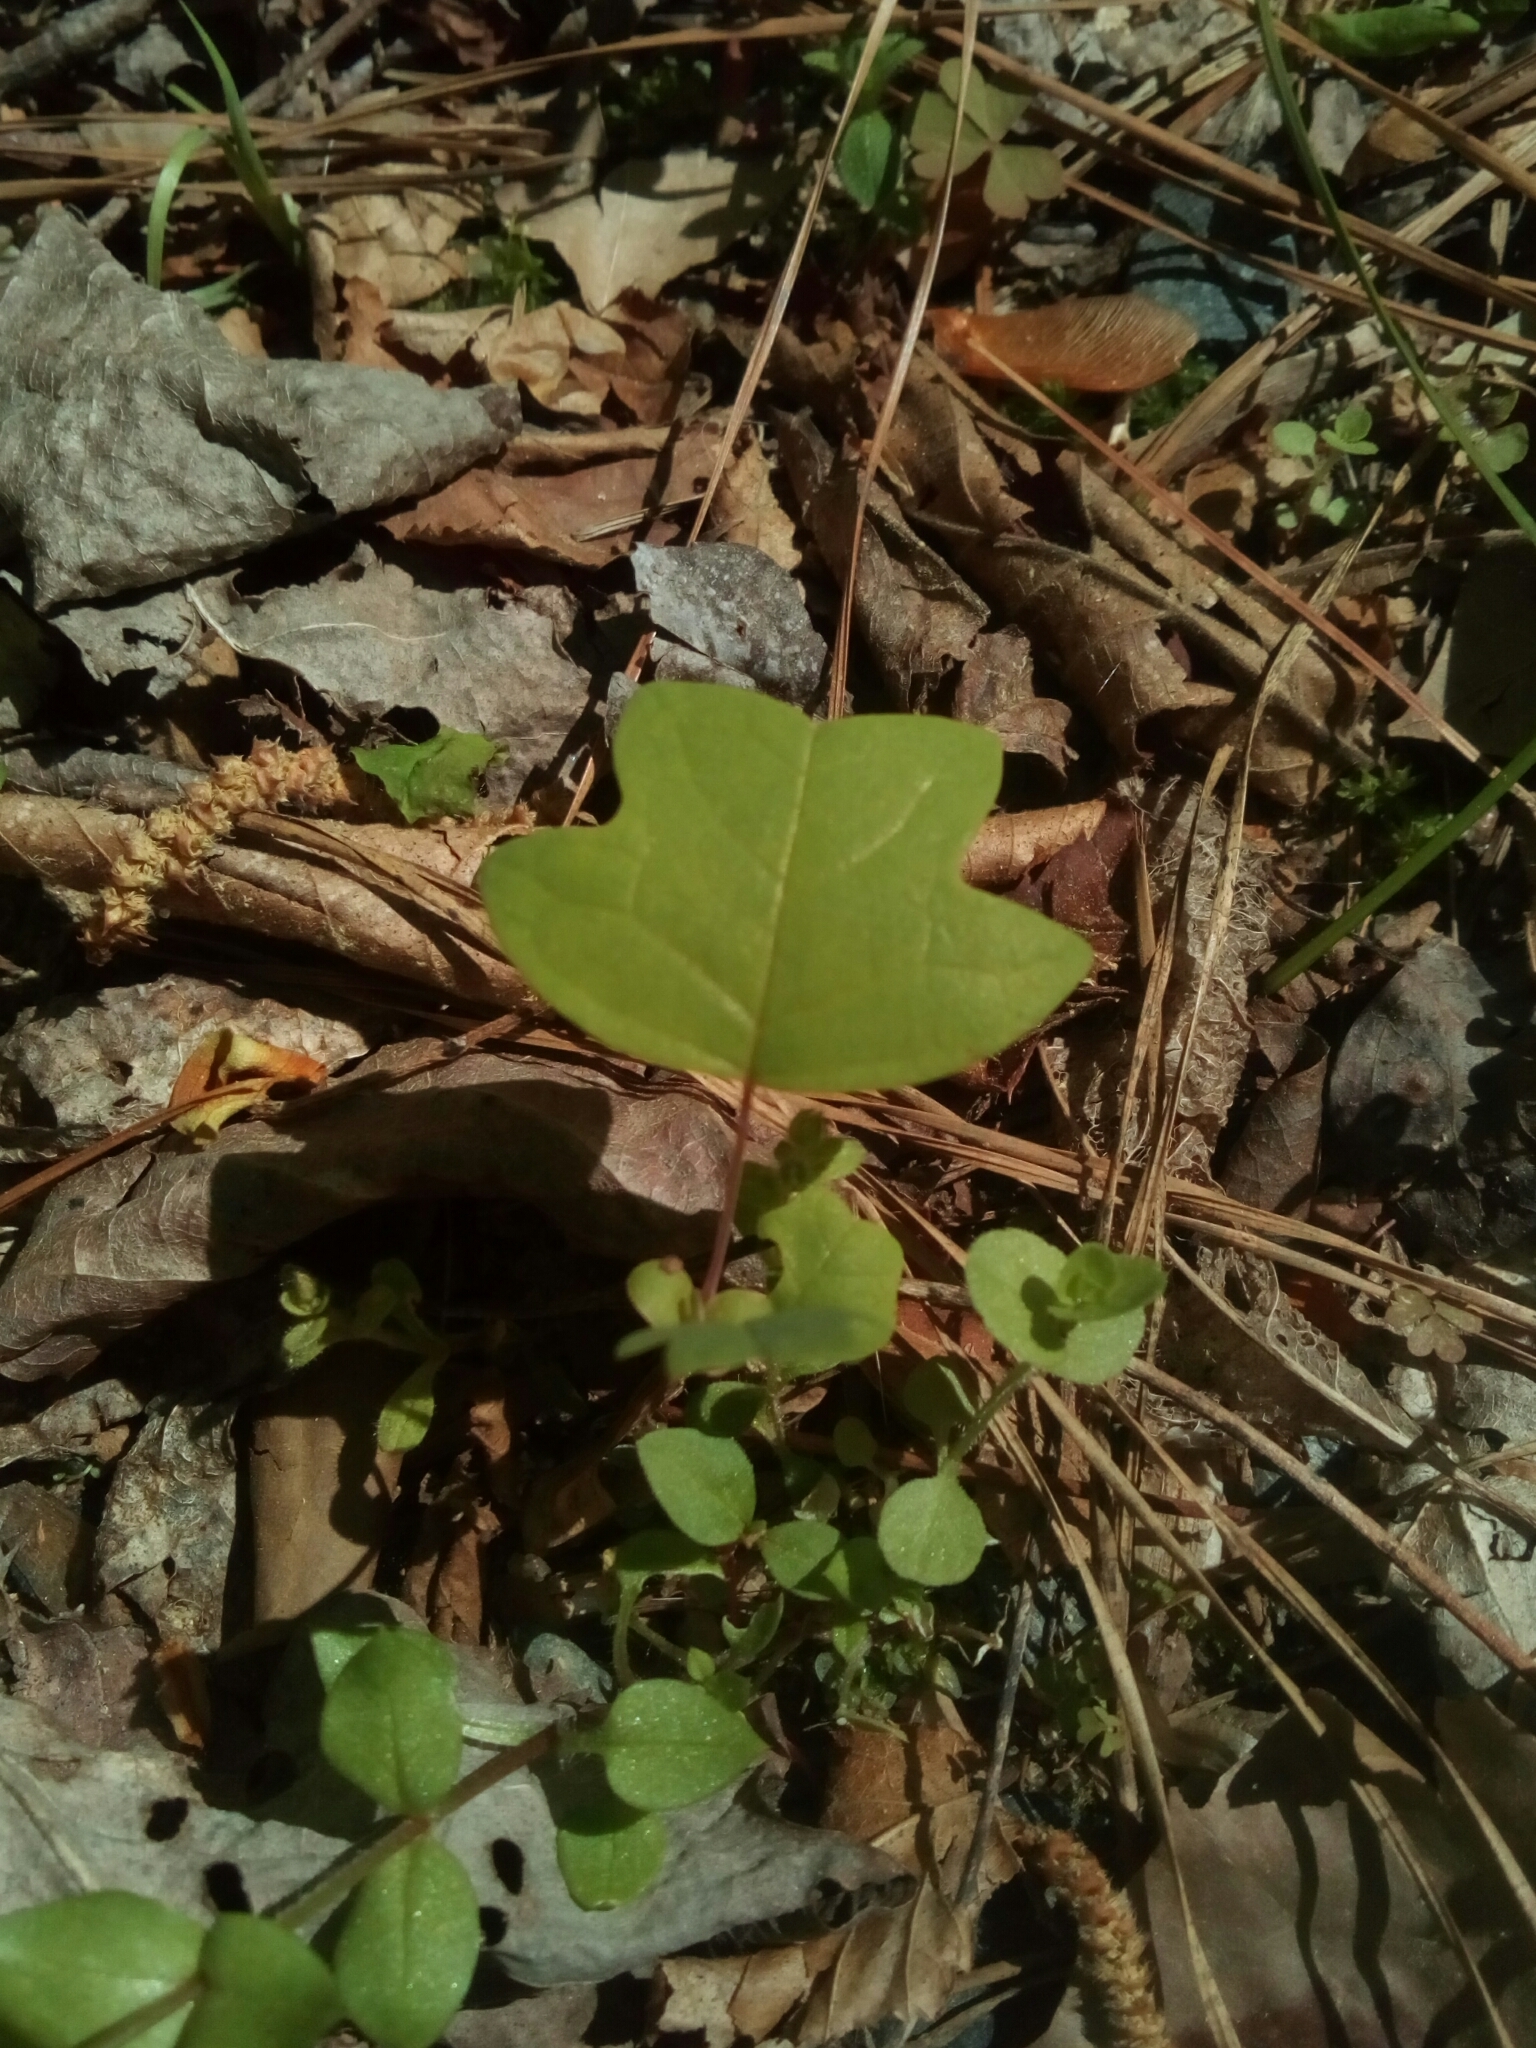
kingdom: Plantae
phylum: Tracheophyta
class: Magnoliopsida
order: Magnoliales
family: Magnoliaceae
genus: Liriodendron
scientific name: Liriodendron tulipifera
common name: Tulip tree
